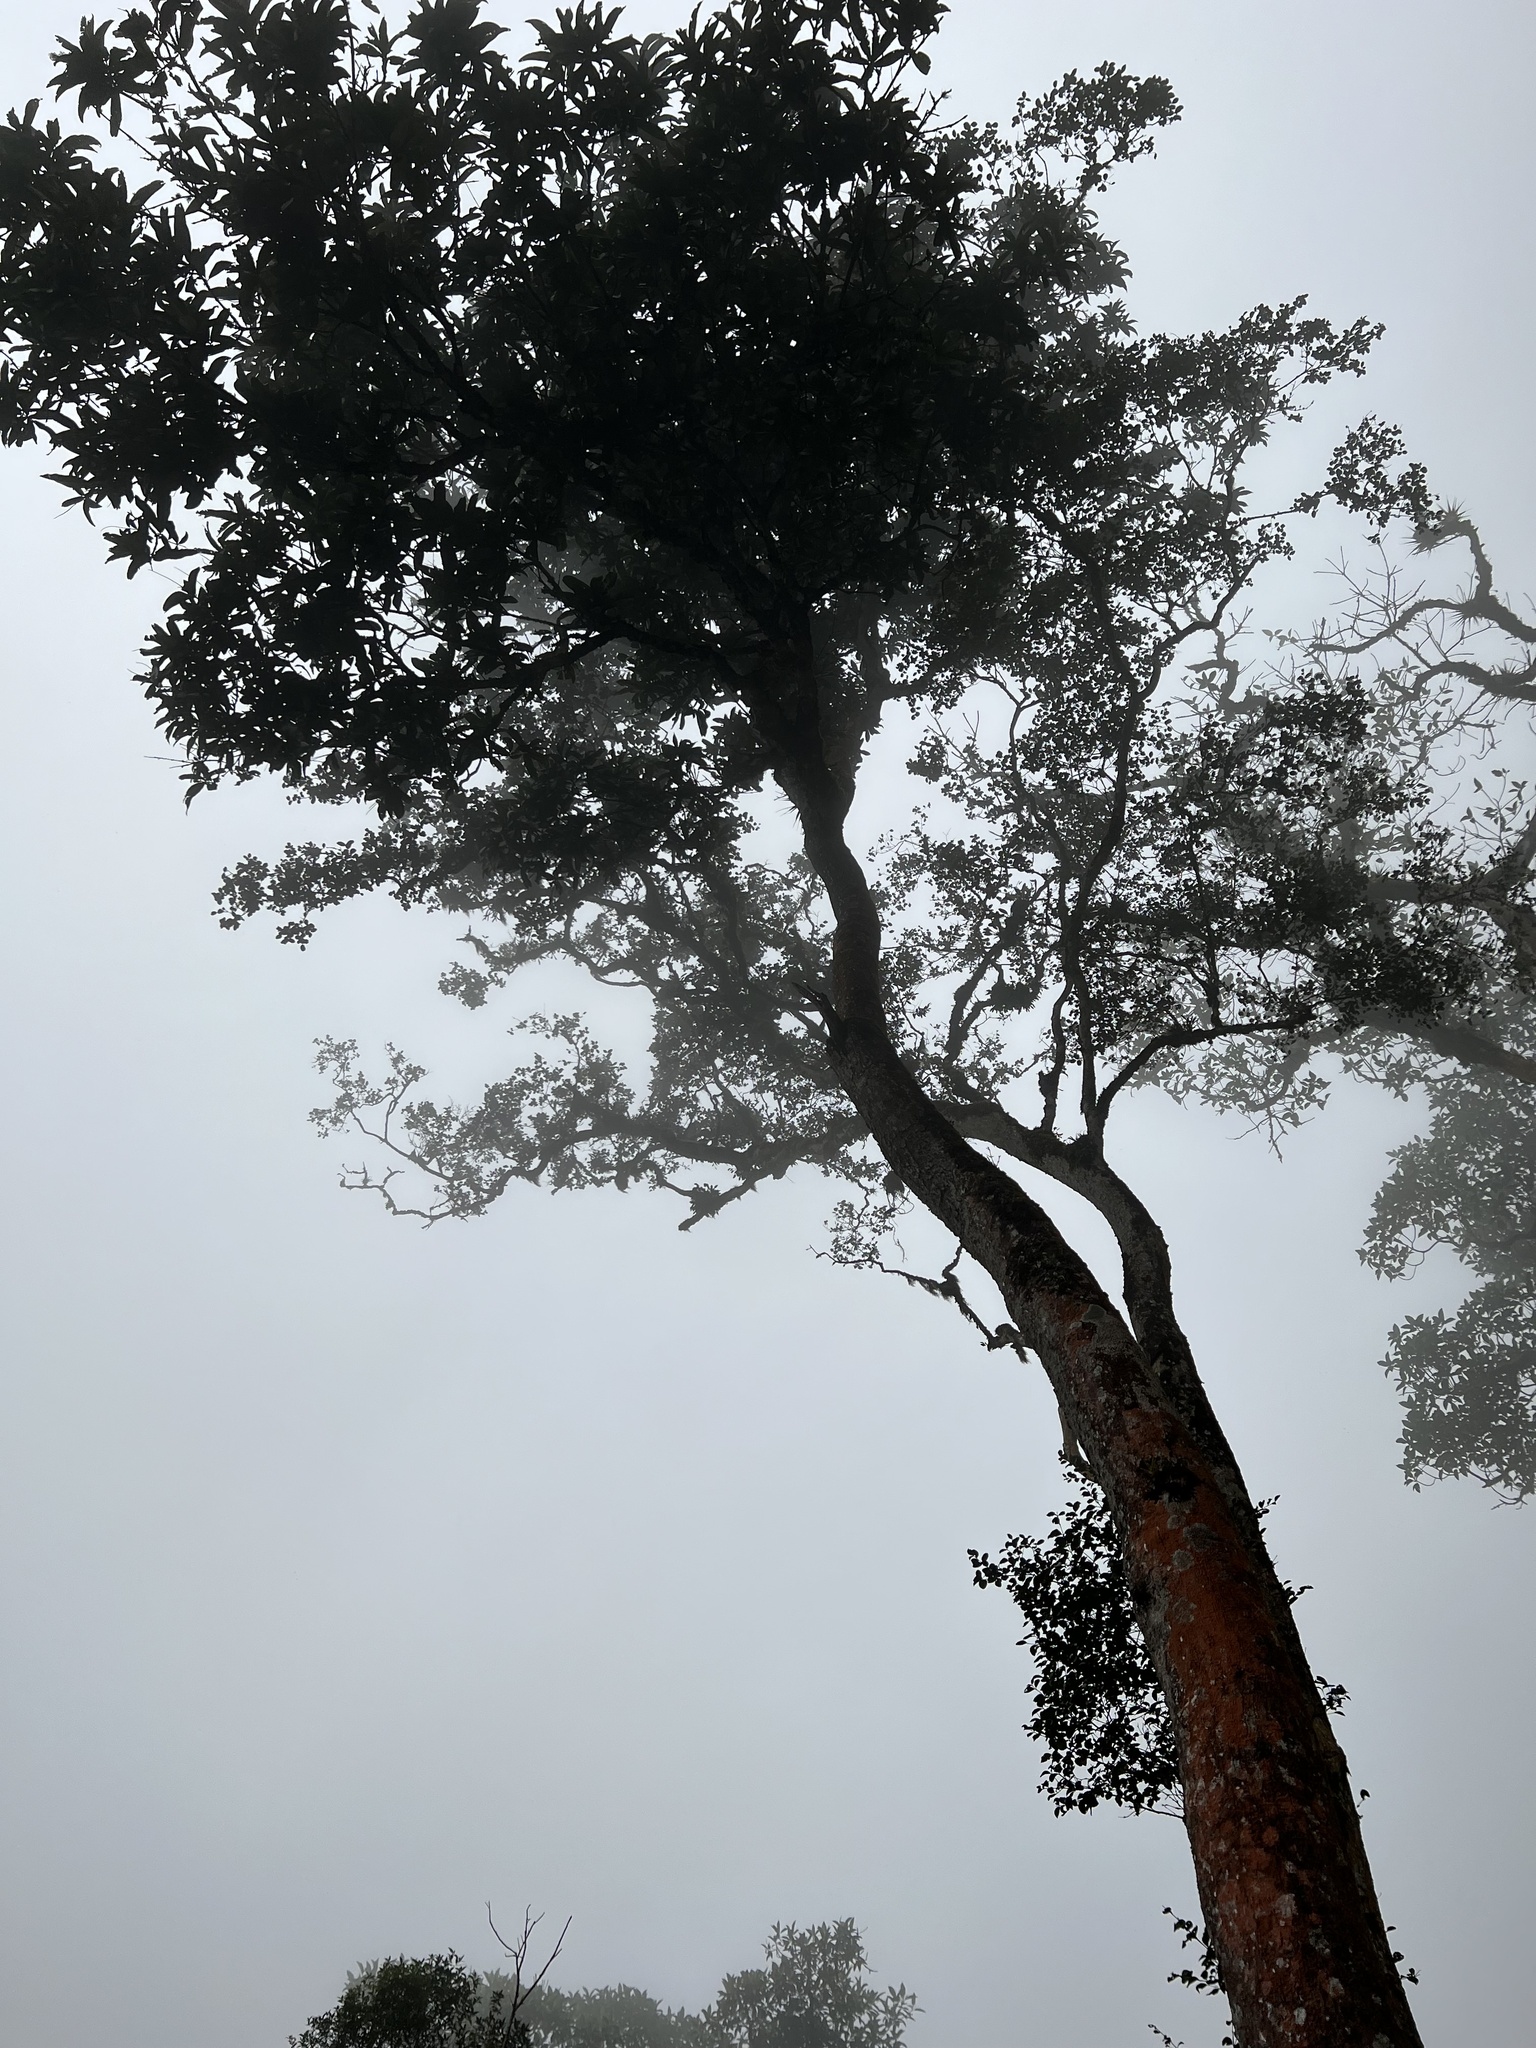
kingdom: Plantae
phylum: Tracheophyta
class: Magnoliopsida
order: Proteales
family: Proteaceae
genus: Panopsis
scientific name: Panopsis suaveolens
